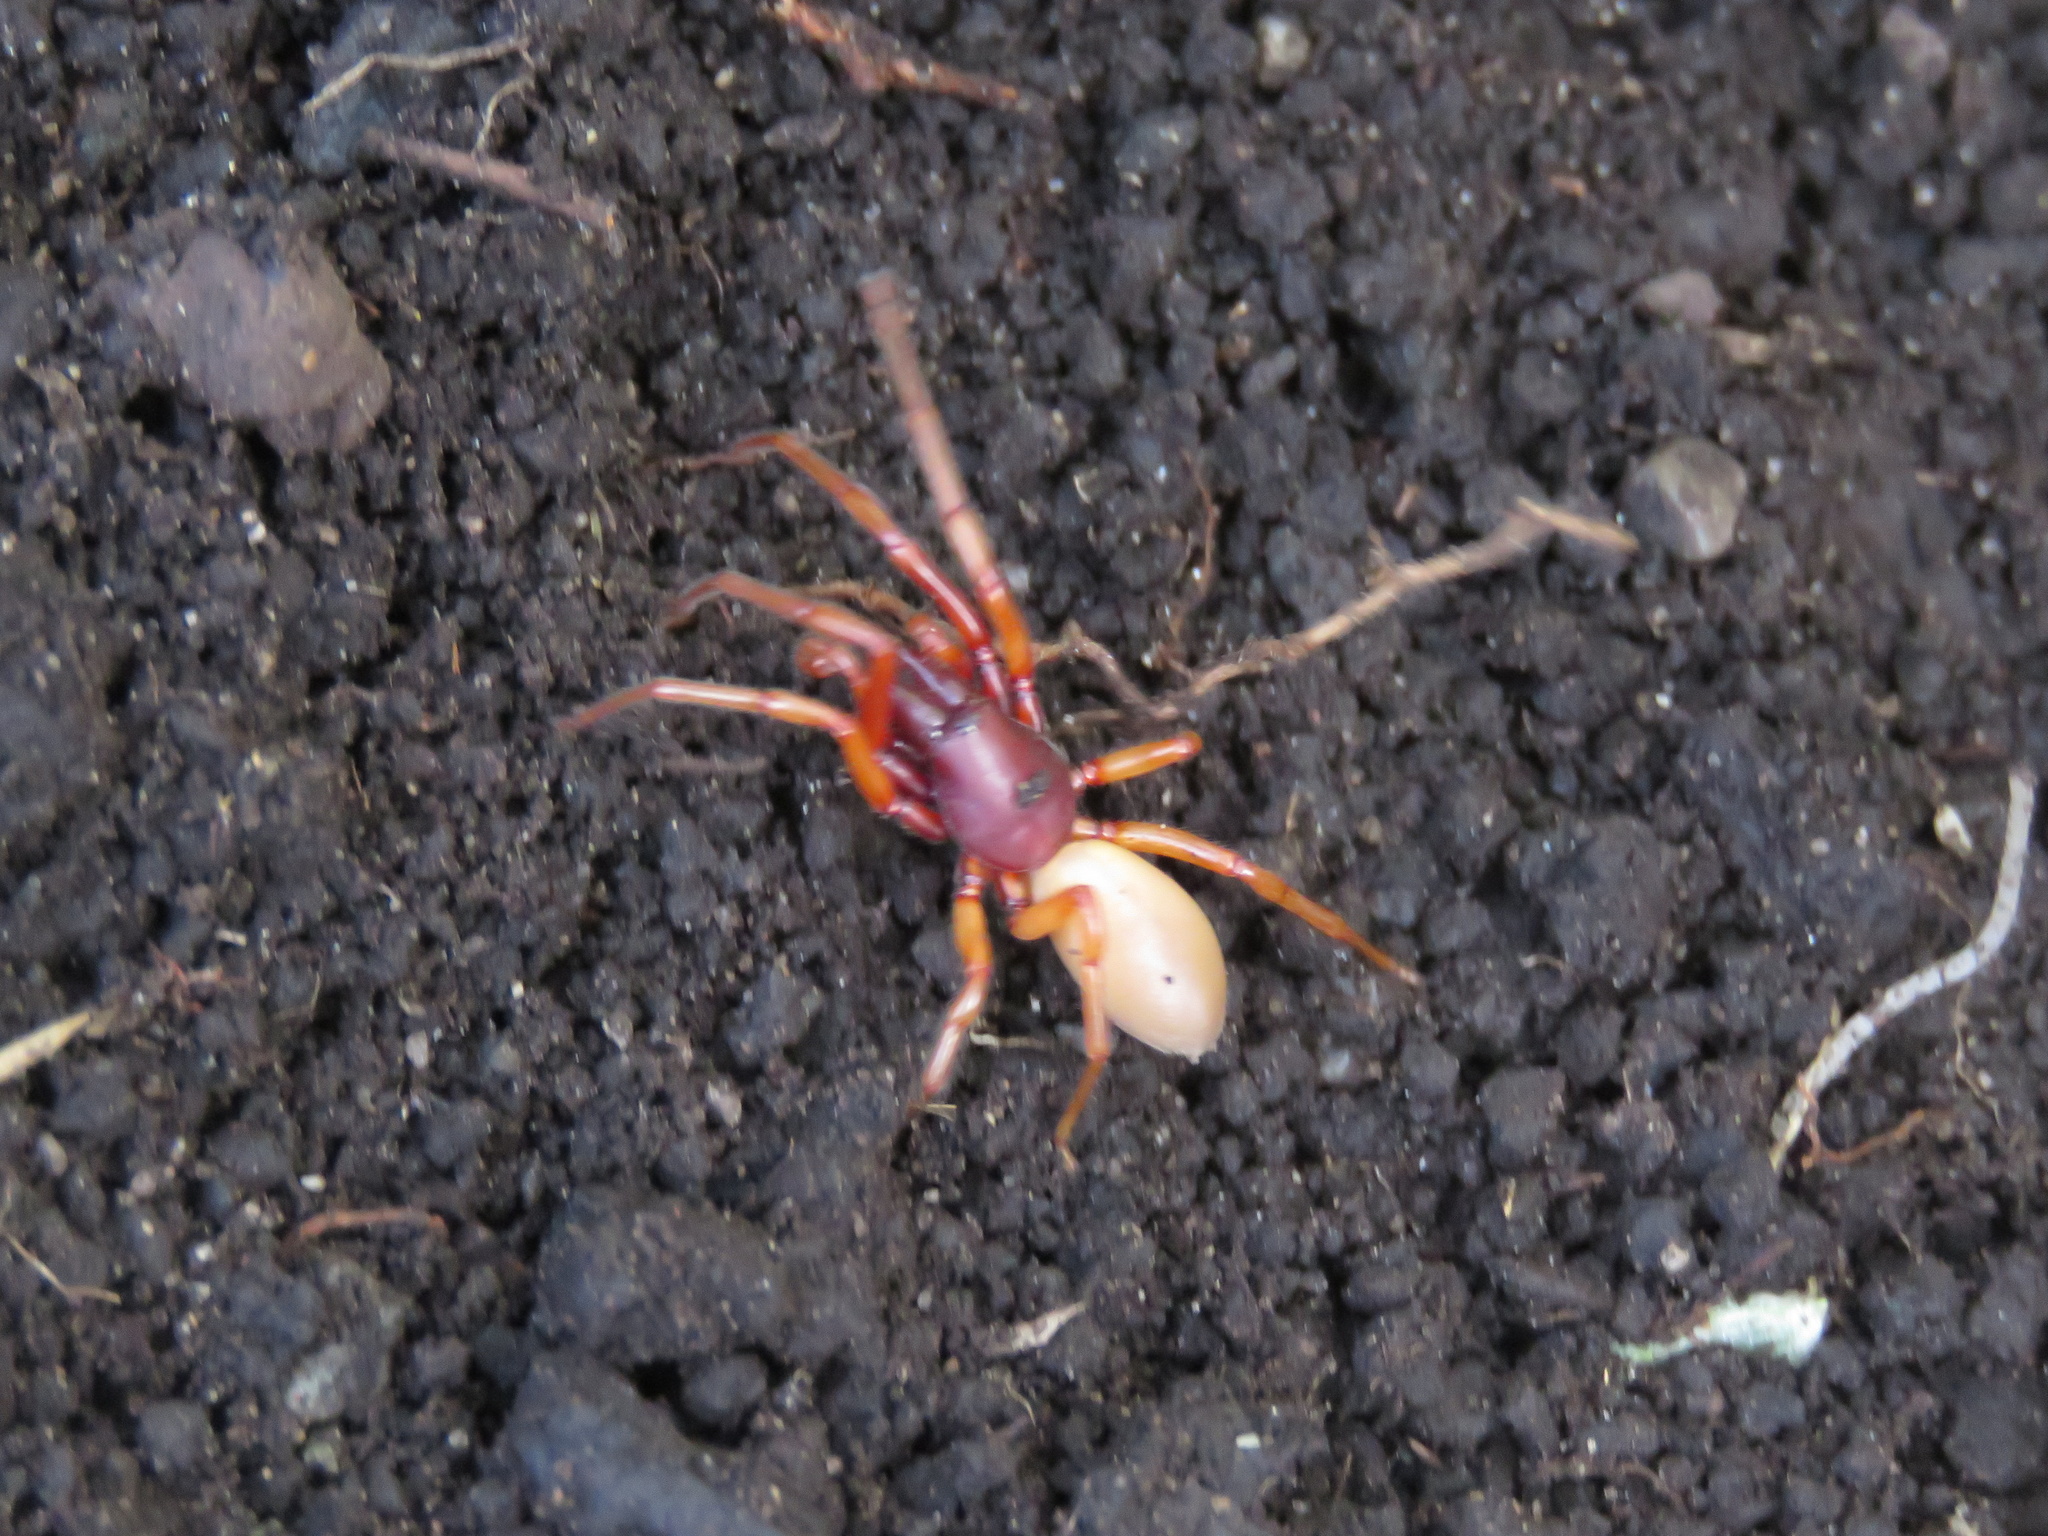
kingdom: Animalia
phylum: Arthropoda
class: Arachnida
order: Araneae
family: Dysderidae
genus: Dysdera
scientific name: Dysdera crocata
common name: Woodlouse spider
